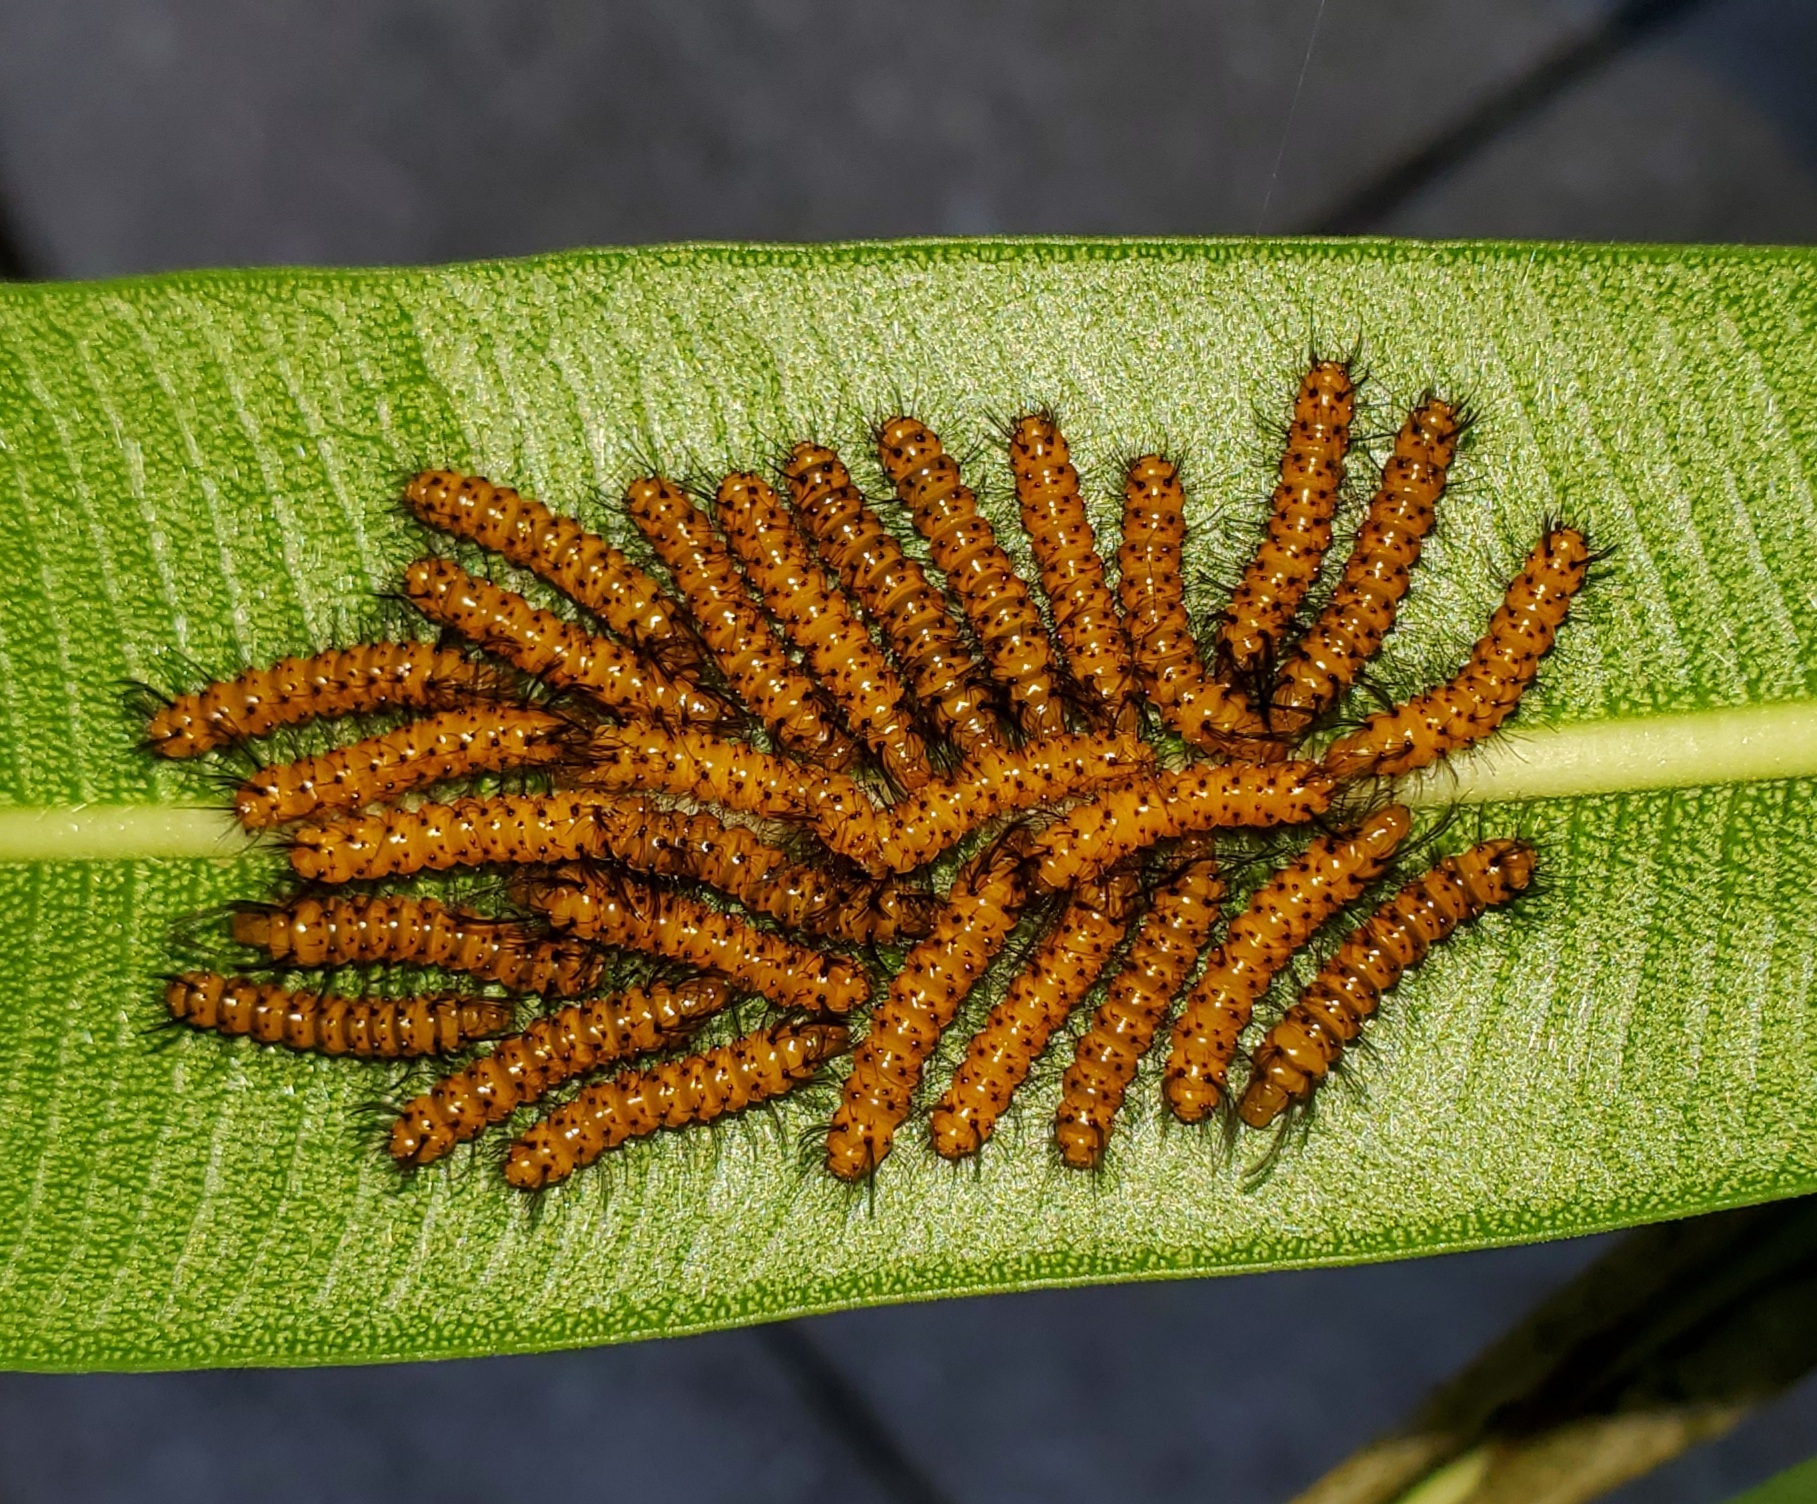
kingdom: Animalia
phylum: Arthropoda
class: Insecta
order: Lepidoptera
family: Erebidae
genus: Syntomeida
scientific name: Syntomeida epilais
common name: Polka-dot wasp moth
